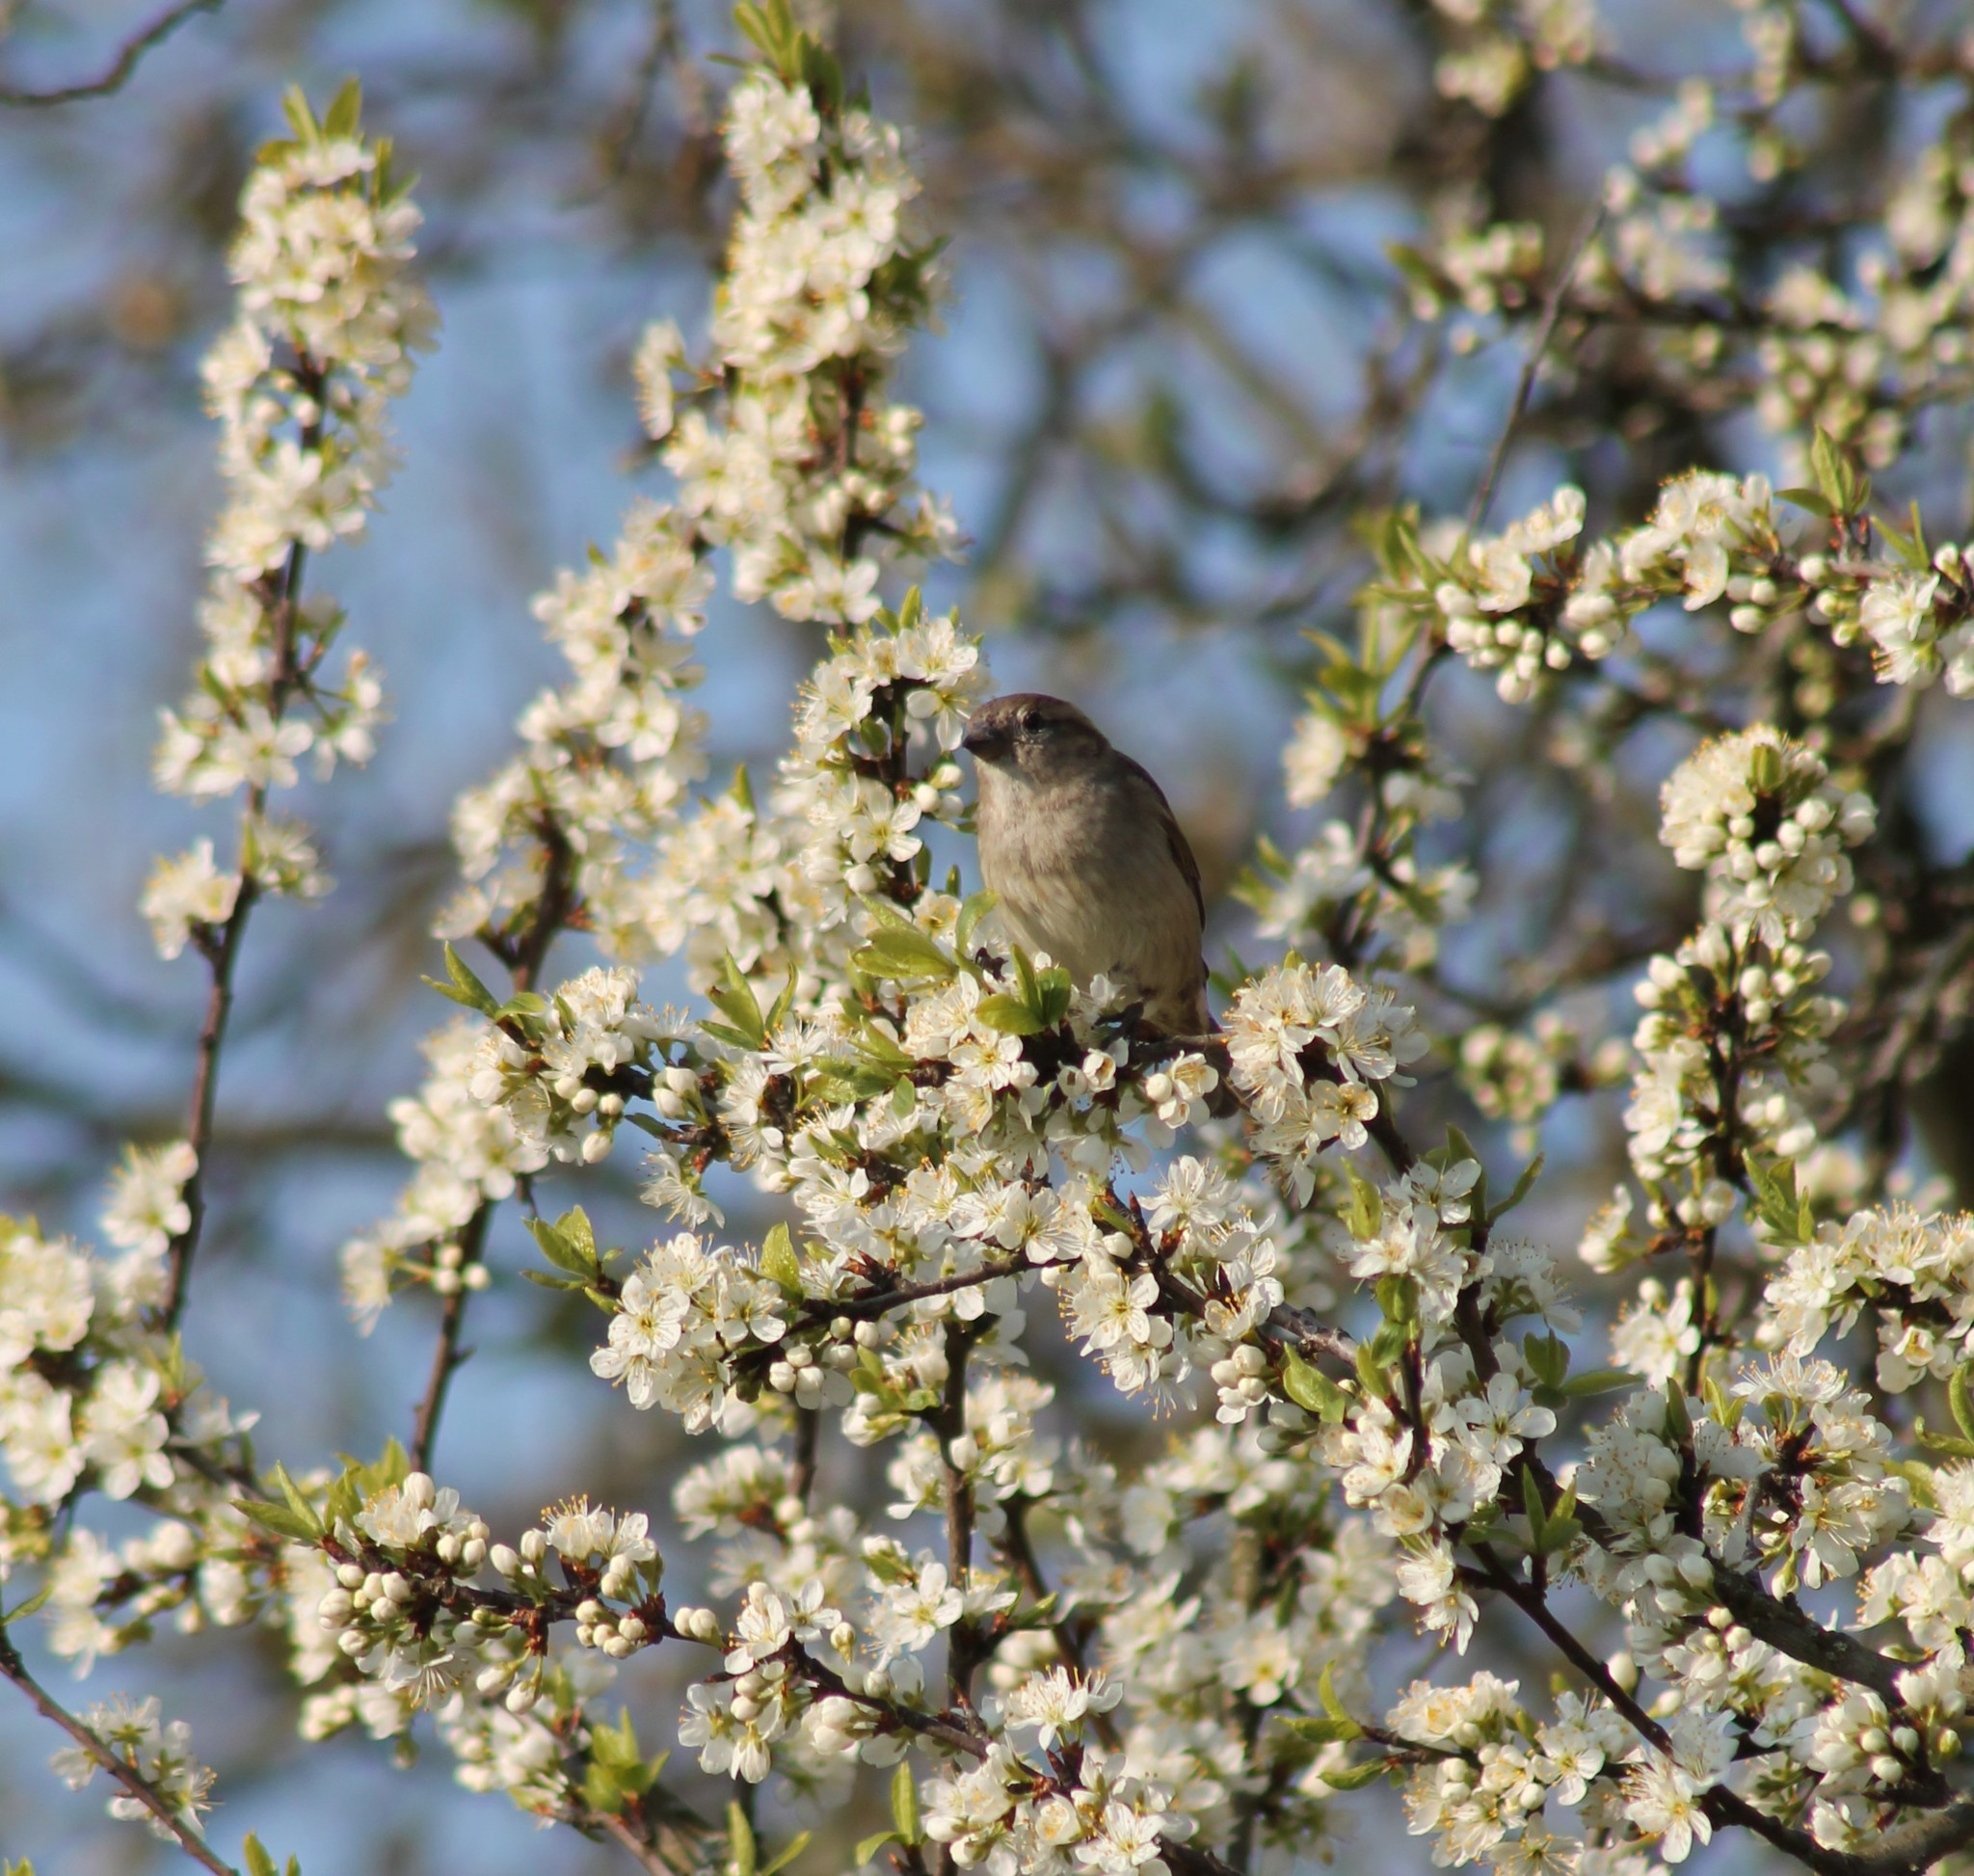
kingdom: Animalia
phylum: Chordata
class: Aves
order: Passeriformes
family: Passeridae
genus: Passer
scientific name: Passer domesticus
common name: House sparrow
